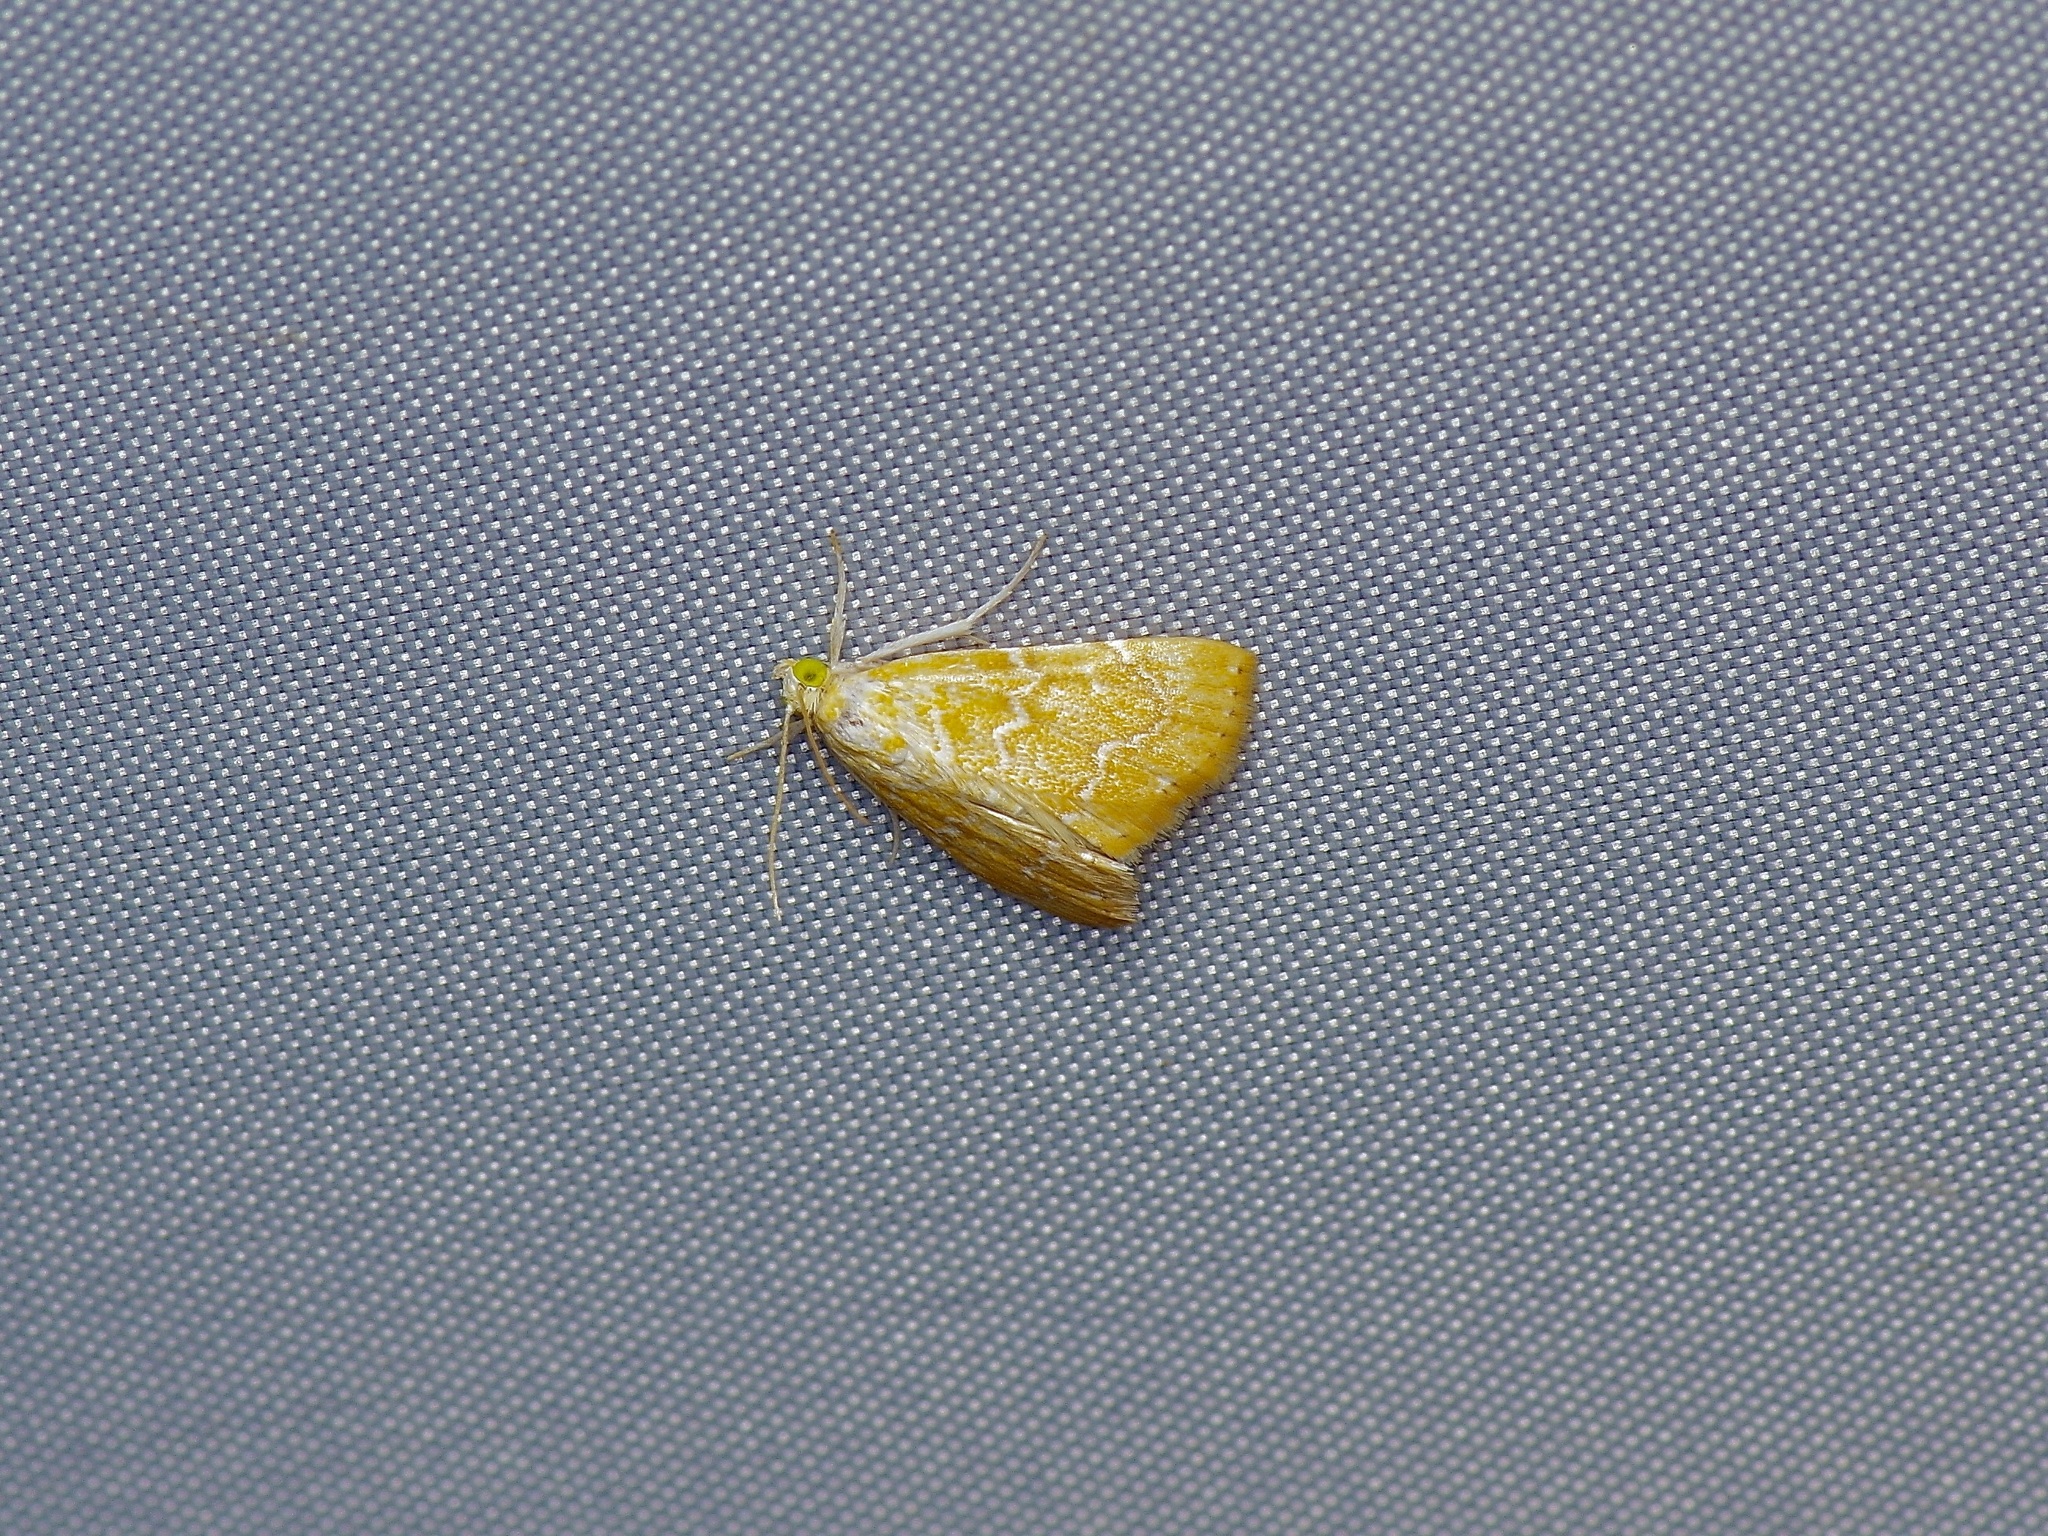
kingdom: Animalia
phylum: Arthropoda
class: Insecta
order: Lepidoptera
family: Crambidae
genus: Glaphyria
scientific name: Glaphyria sesquistrialis
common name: White-roped glaphyria
